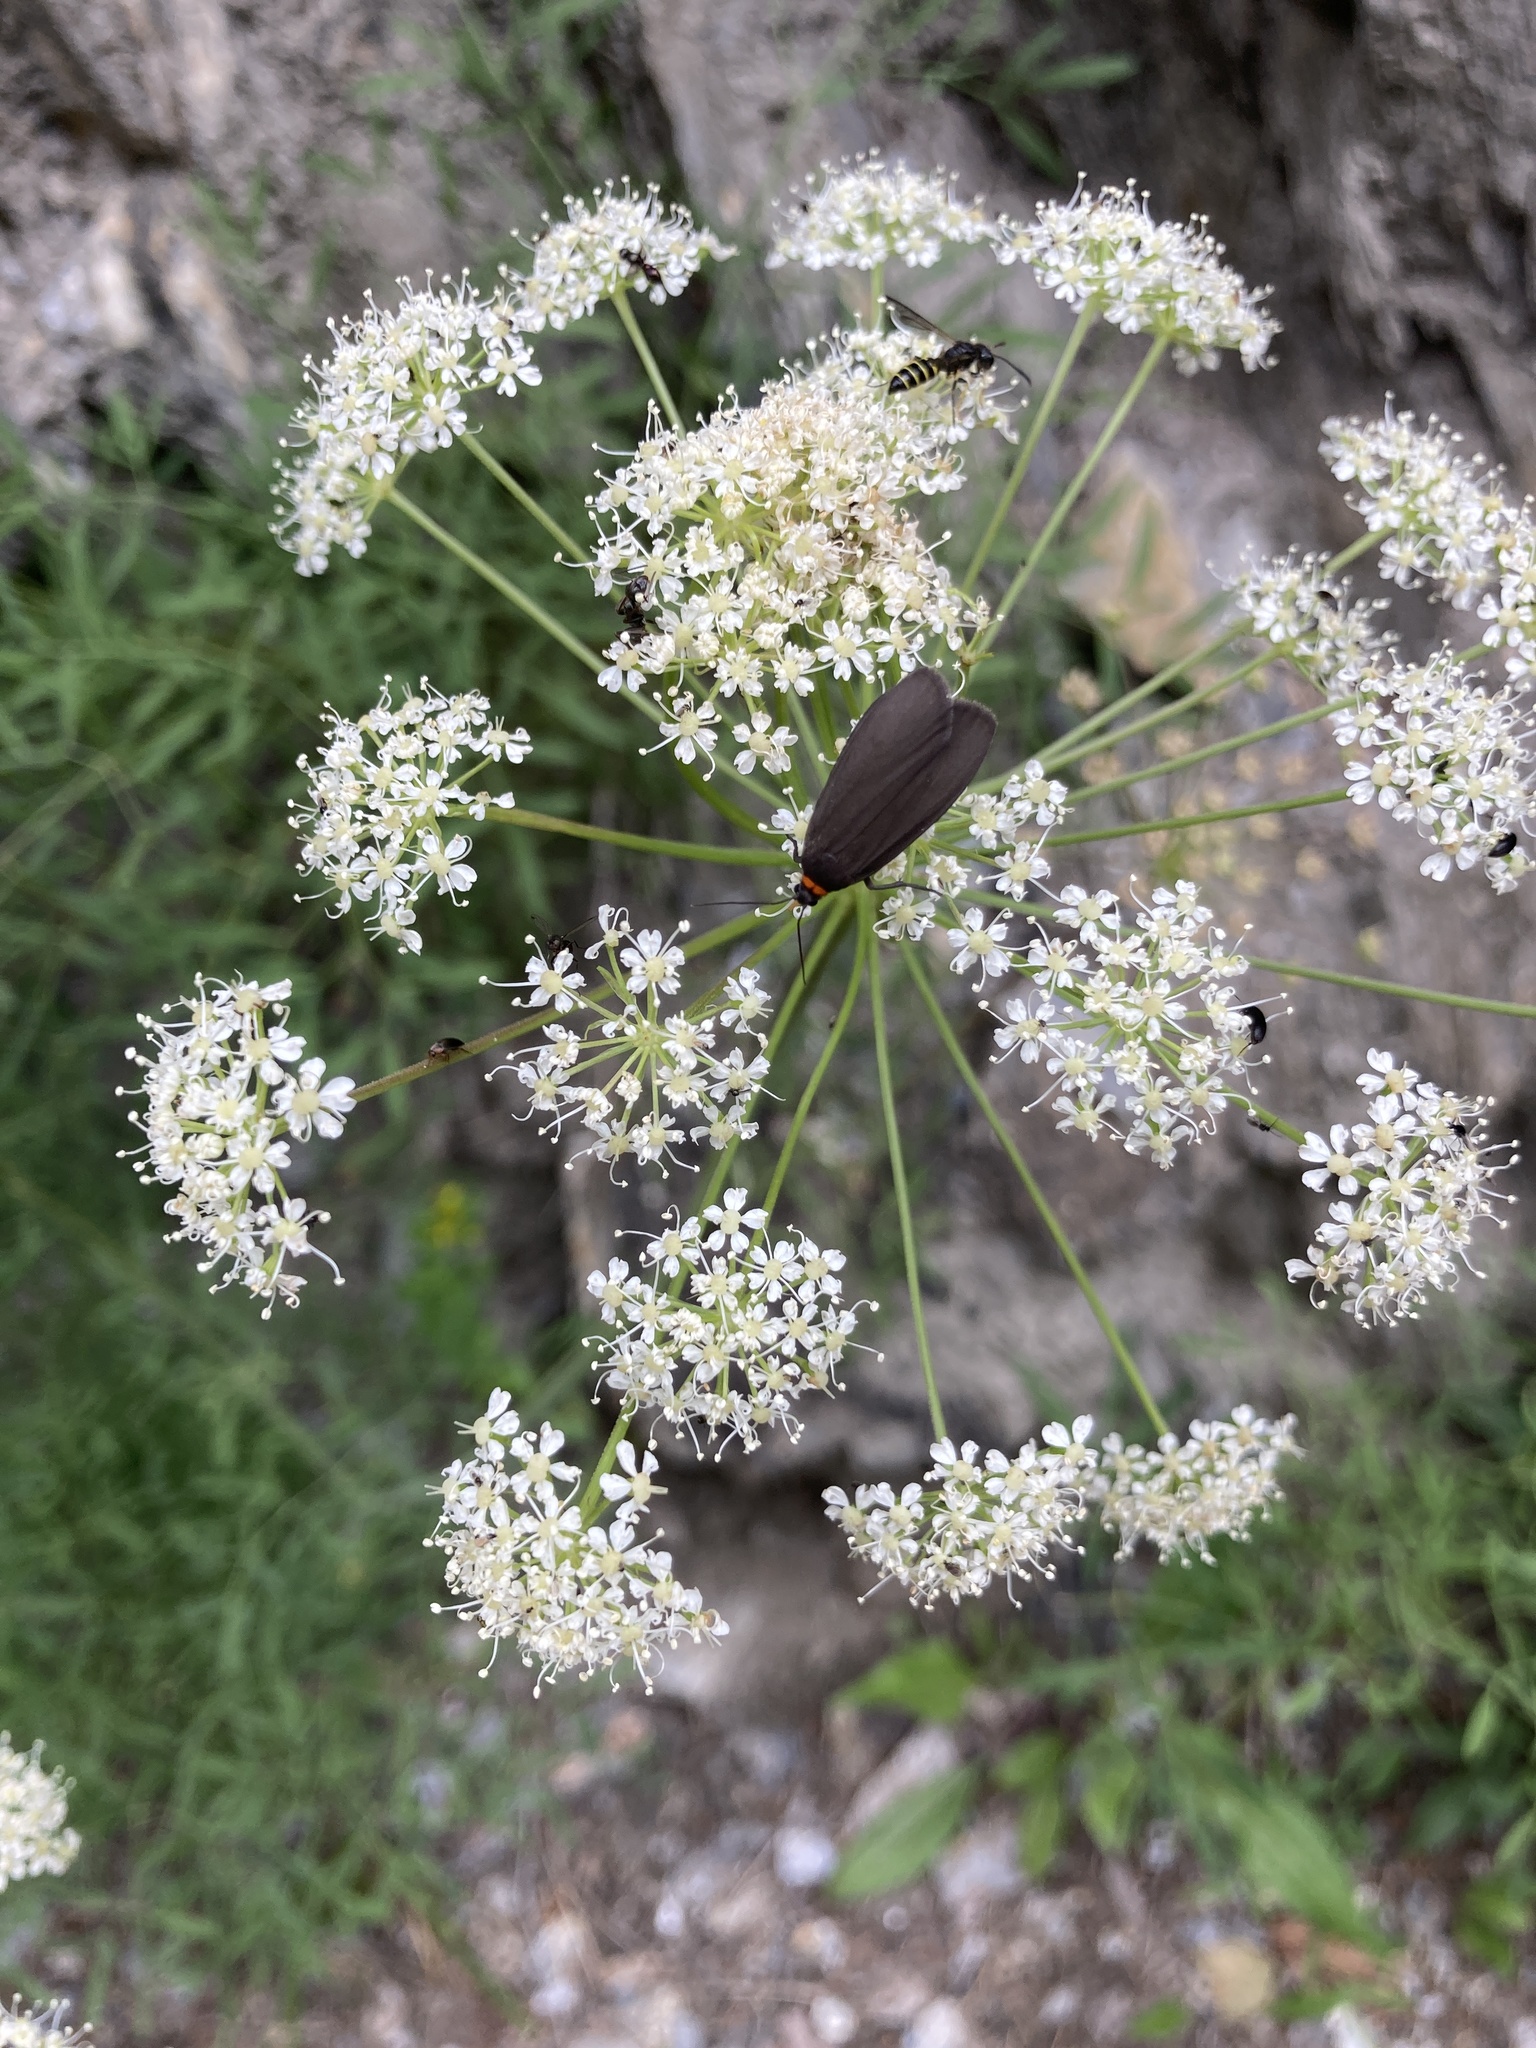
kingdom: Animalia
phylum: Arthropoda
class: Insecta
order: Lepidoptera
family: Erebidae
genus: Atolmis
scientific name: Atolmis rubricollis
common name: Red-necked footman
